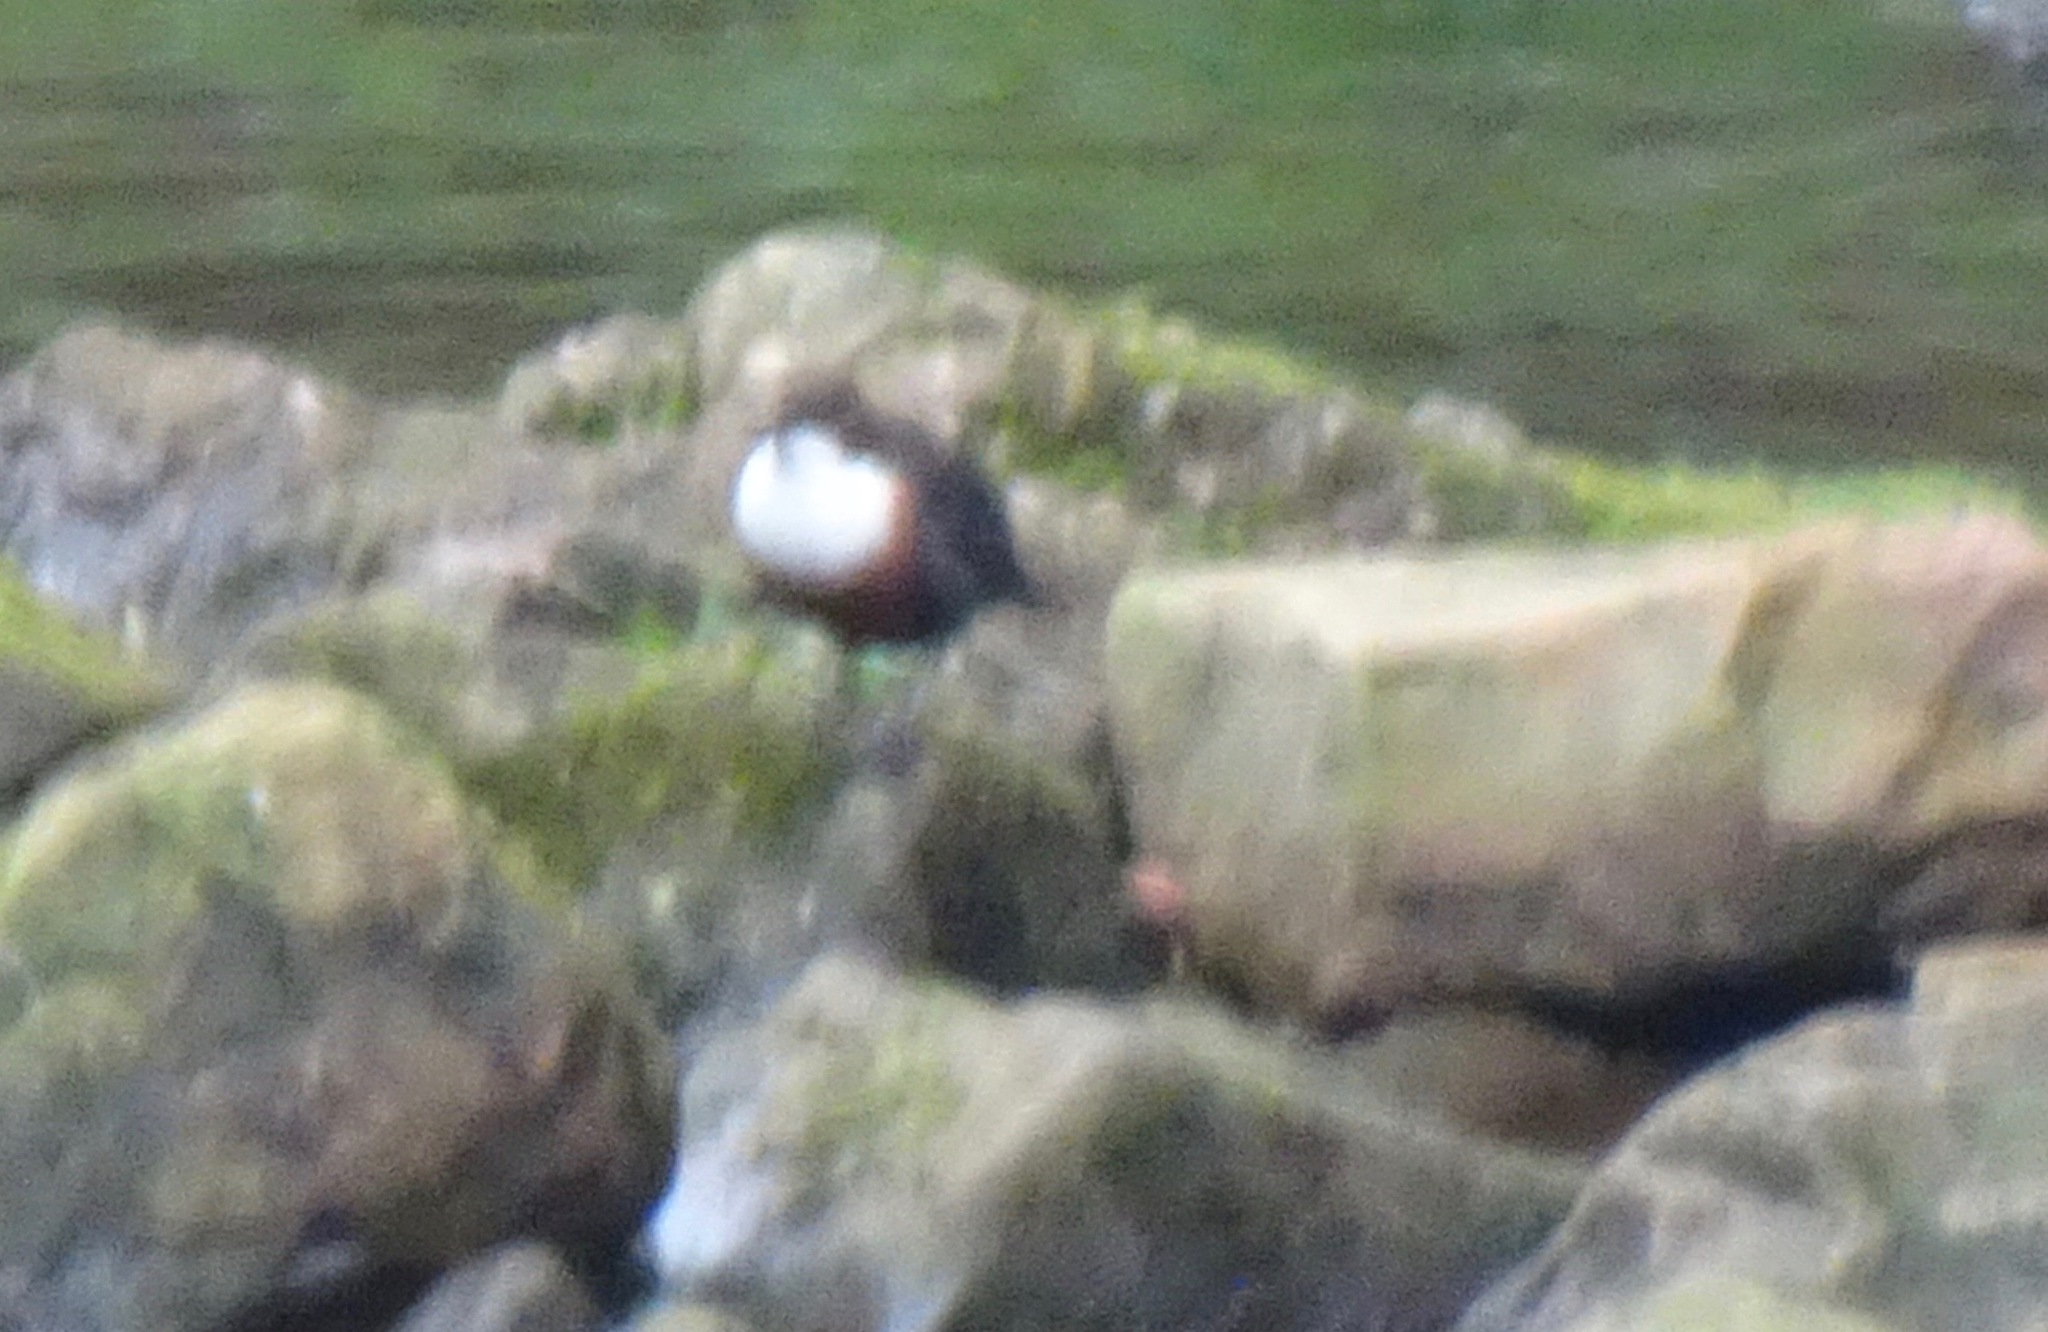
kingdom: Animalia
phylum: Chordata
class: Aves
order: Passeriformes
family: Cinclidae
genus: Cinclus
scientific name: Cinclus cinclus
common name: White-throated dipper
